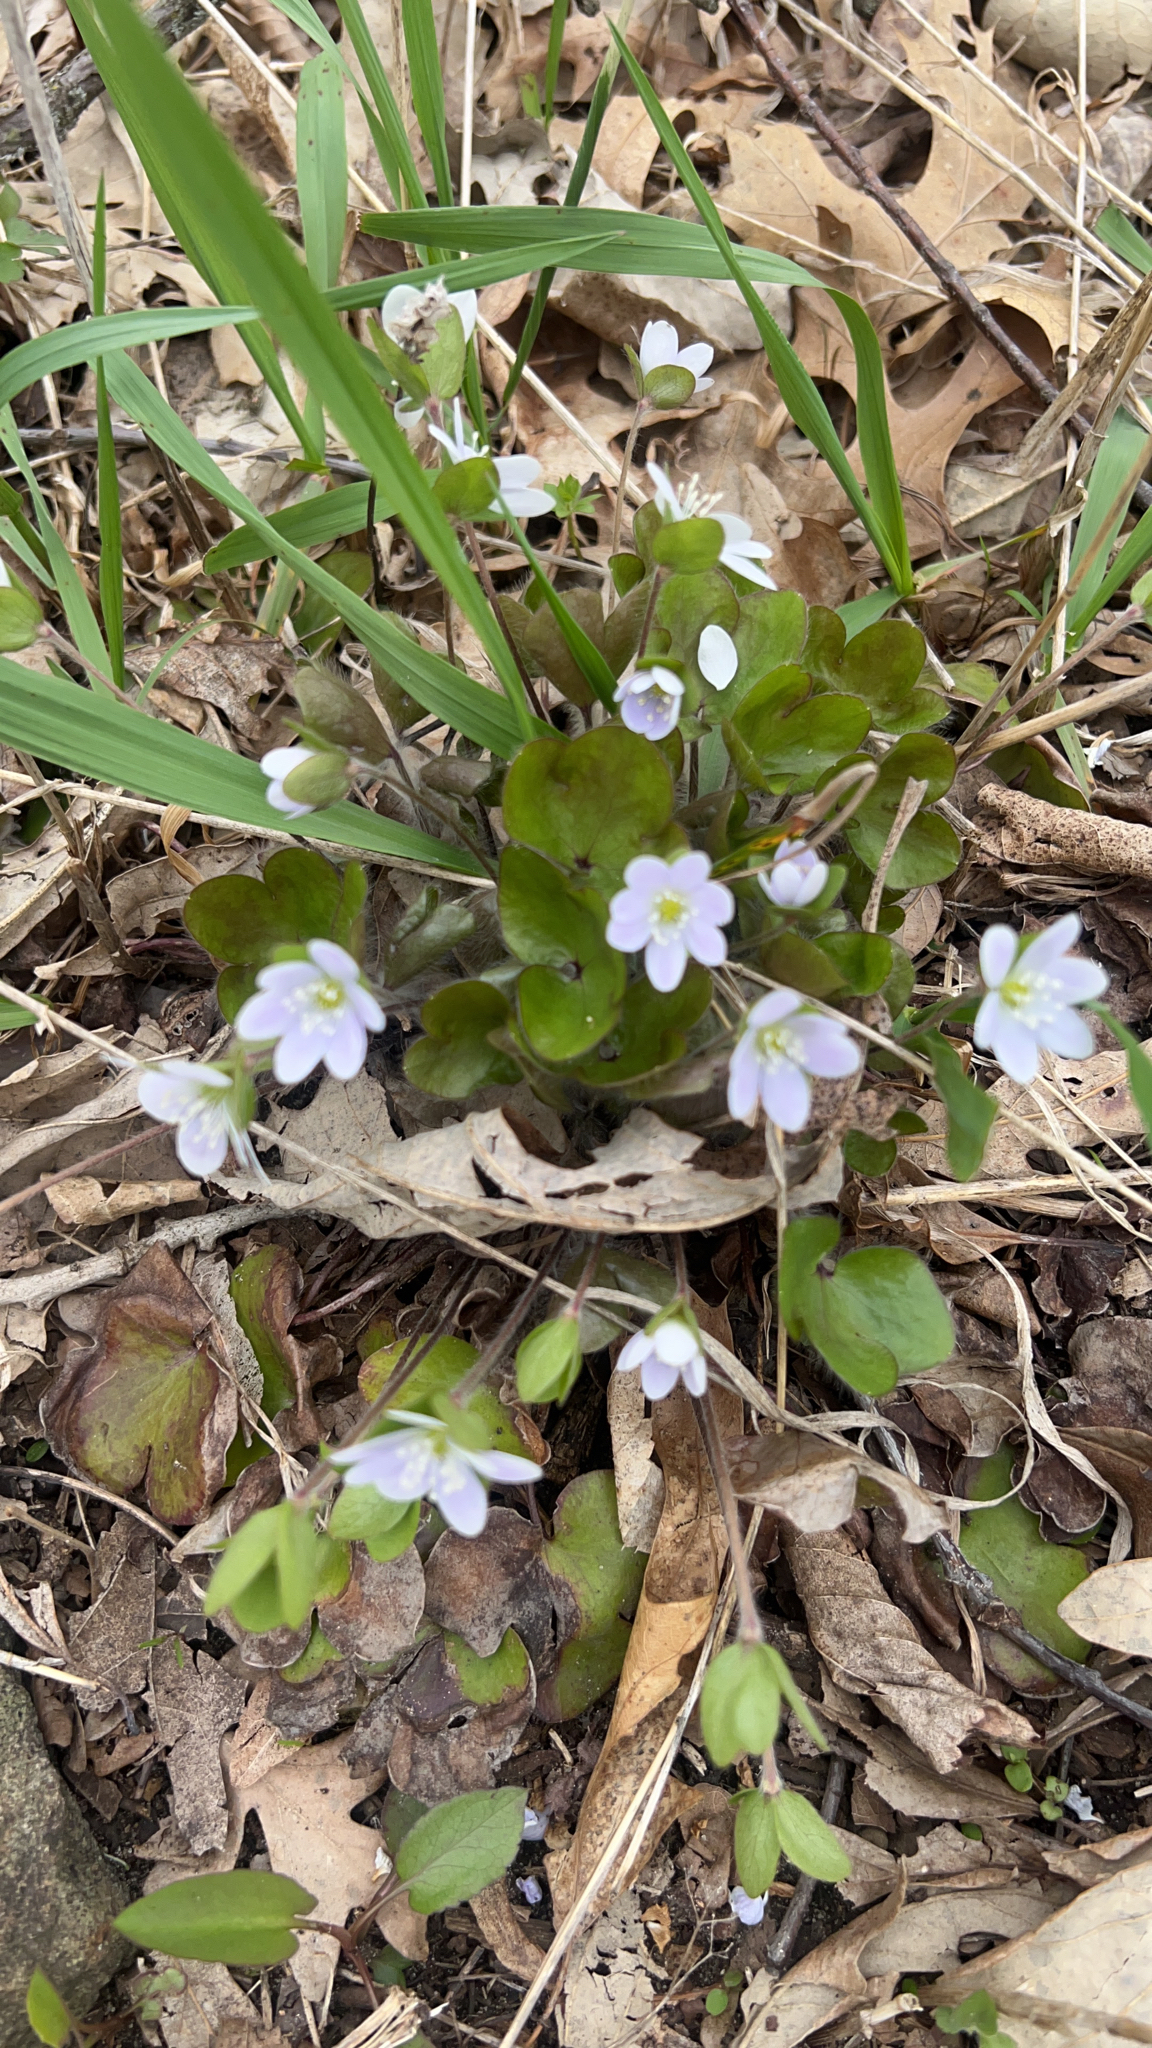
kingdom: Plantae
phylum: Tracheophyta
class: Magnoliopsida
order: Ranunculales
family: Ranunculaceae
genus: Hepatica
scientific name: Hepatica americana
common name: American hepatica
